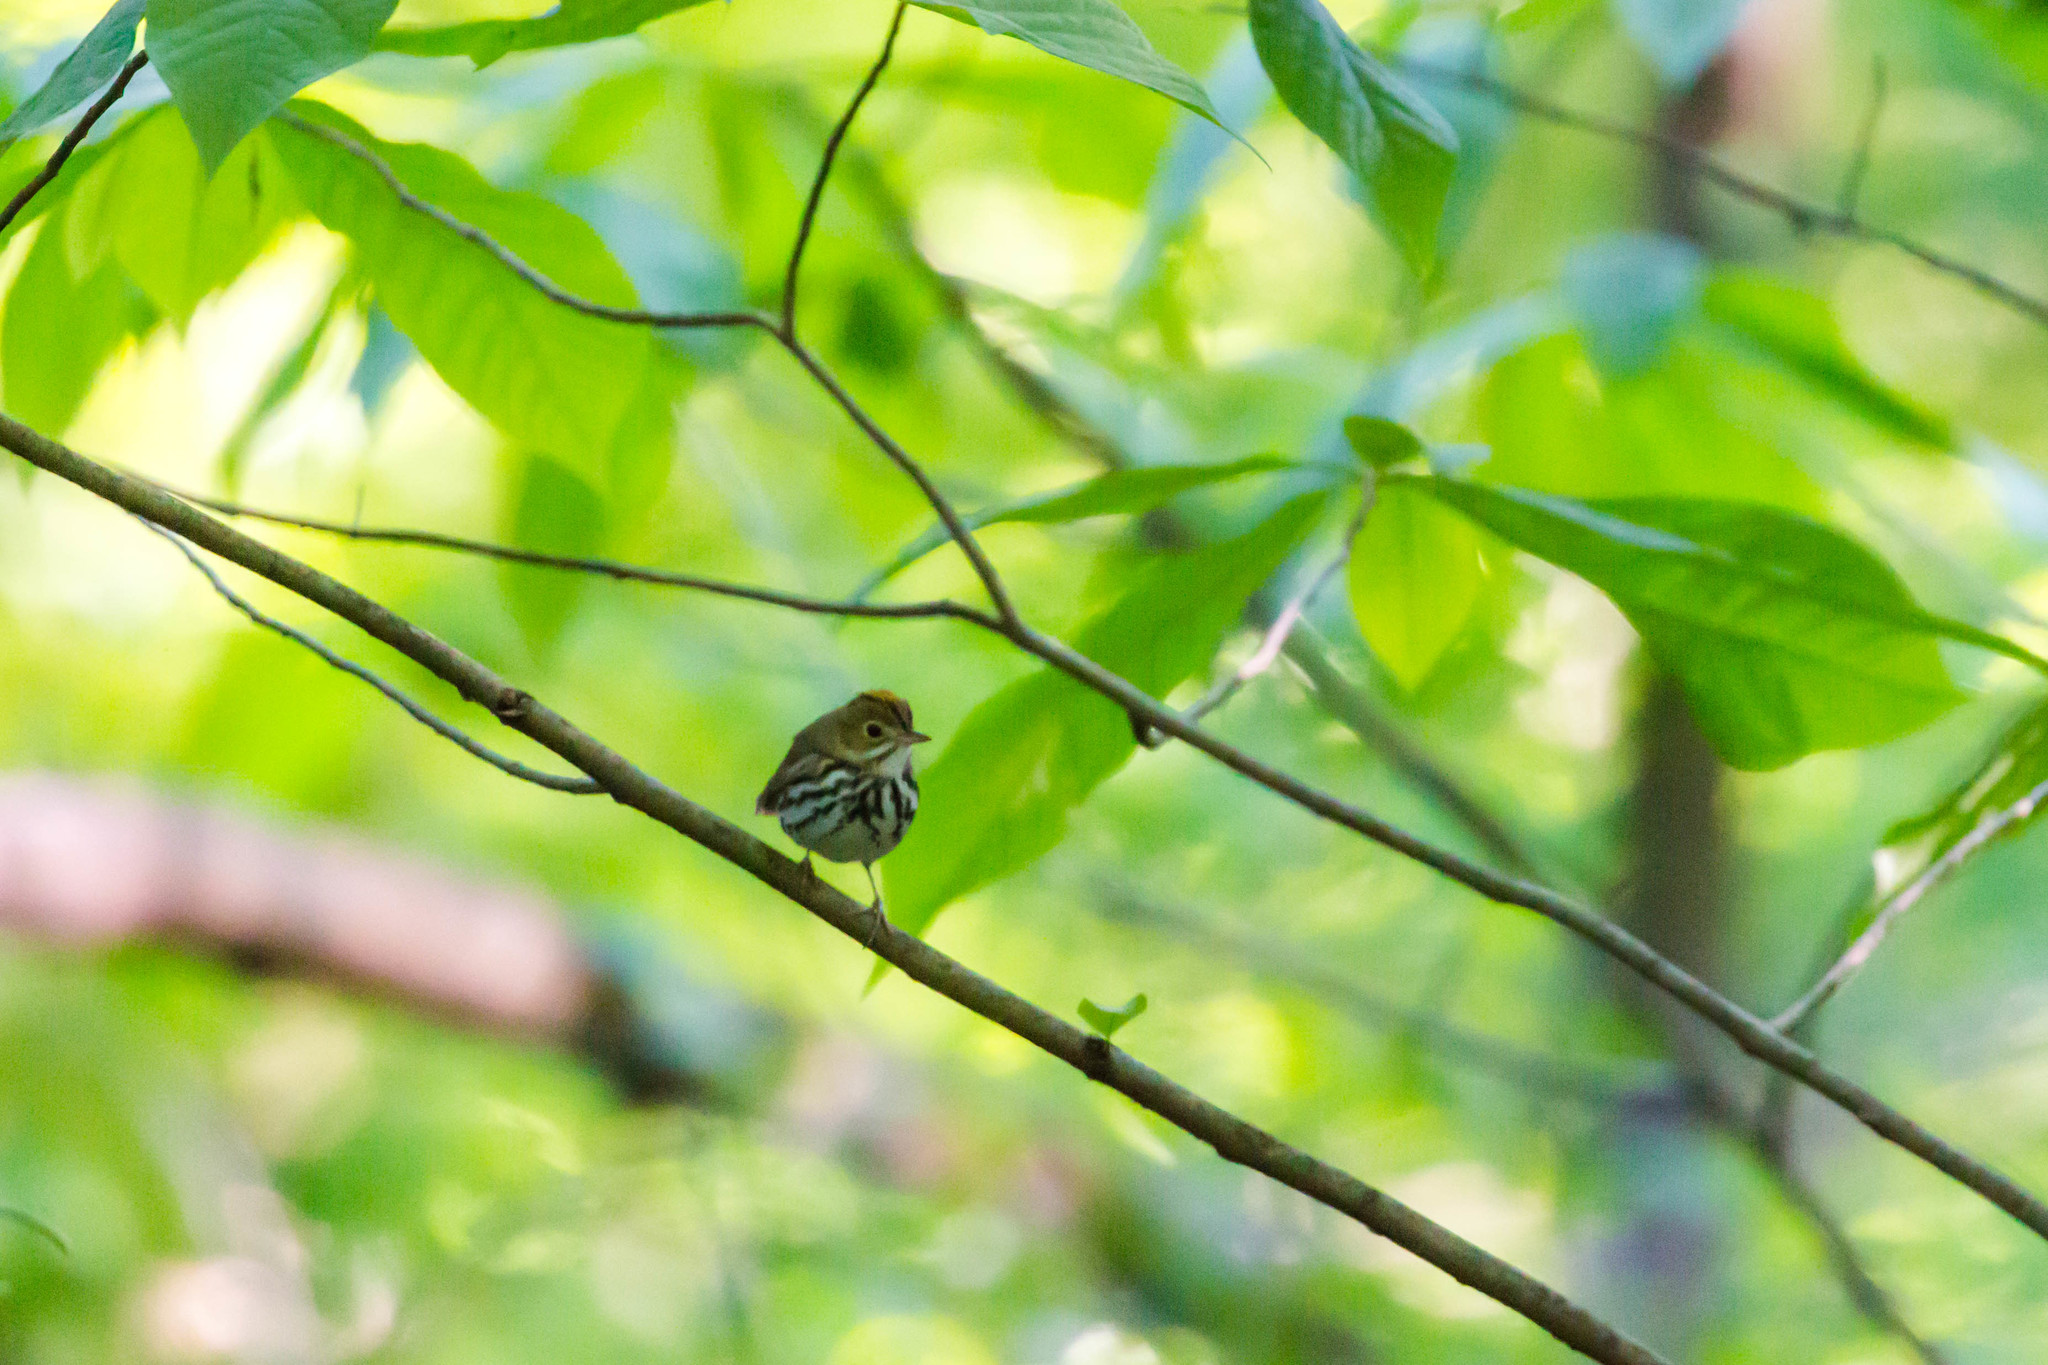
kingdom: Animalia
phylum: Chordata
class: Aves
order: Passeriformes
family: Parulidae
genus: Seiurus
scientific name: Seiurus aurocapilla
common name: Ovenbird
